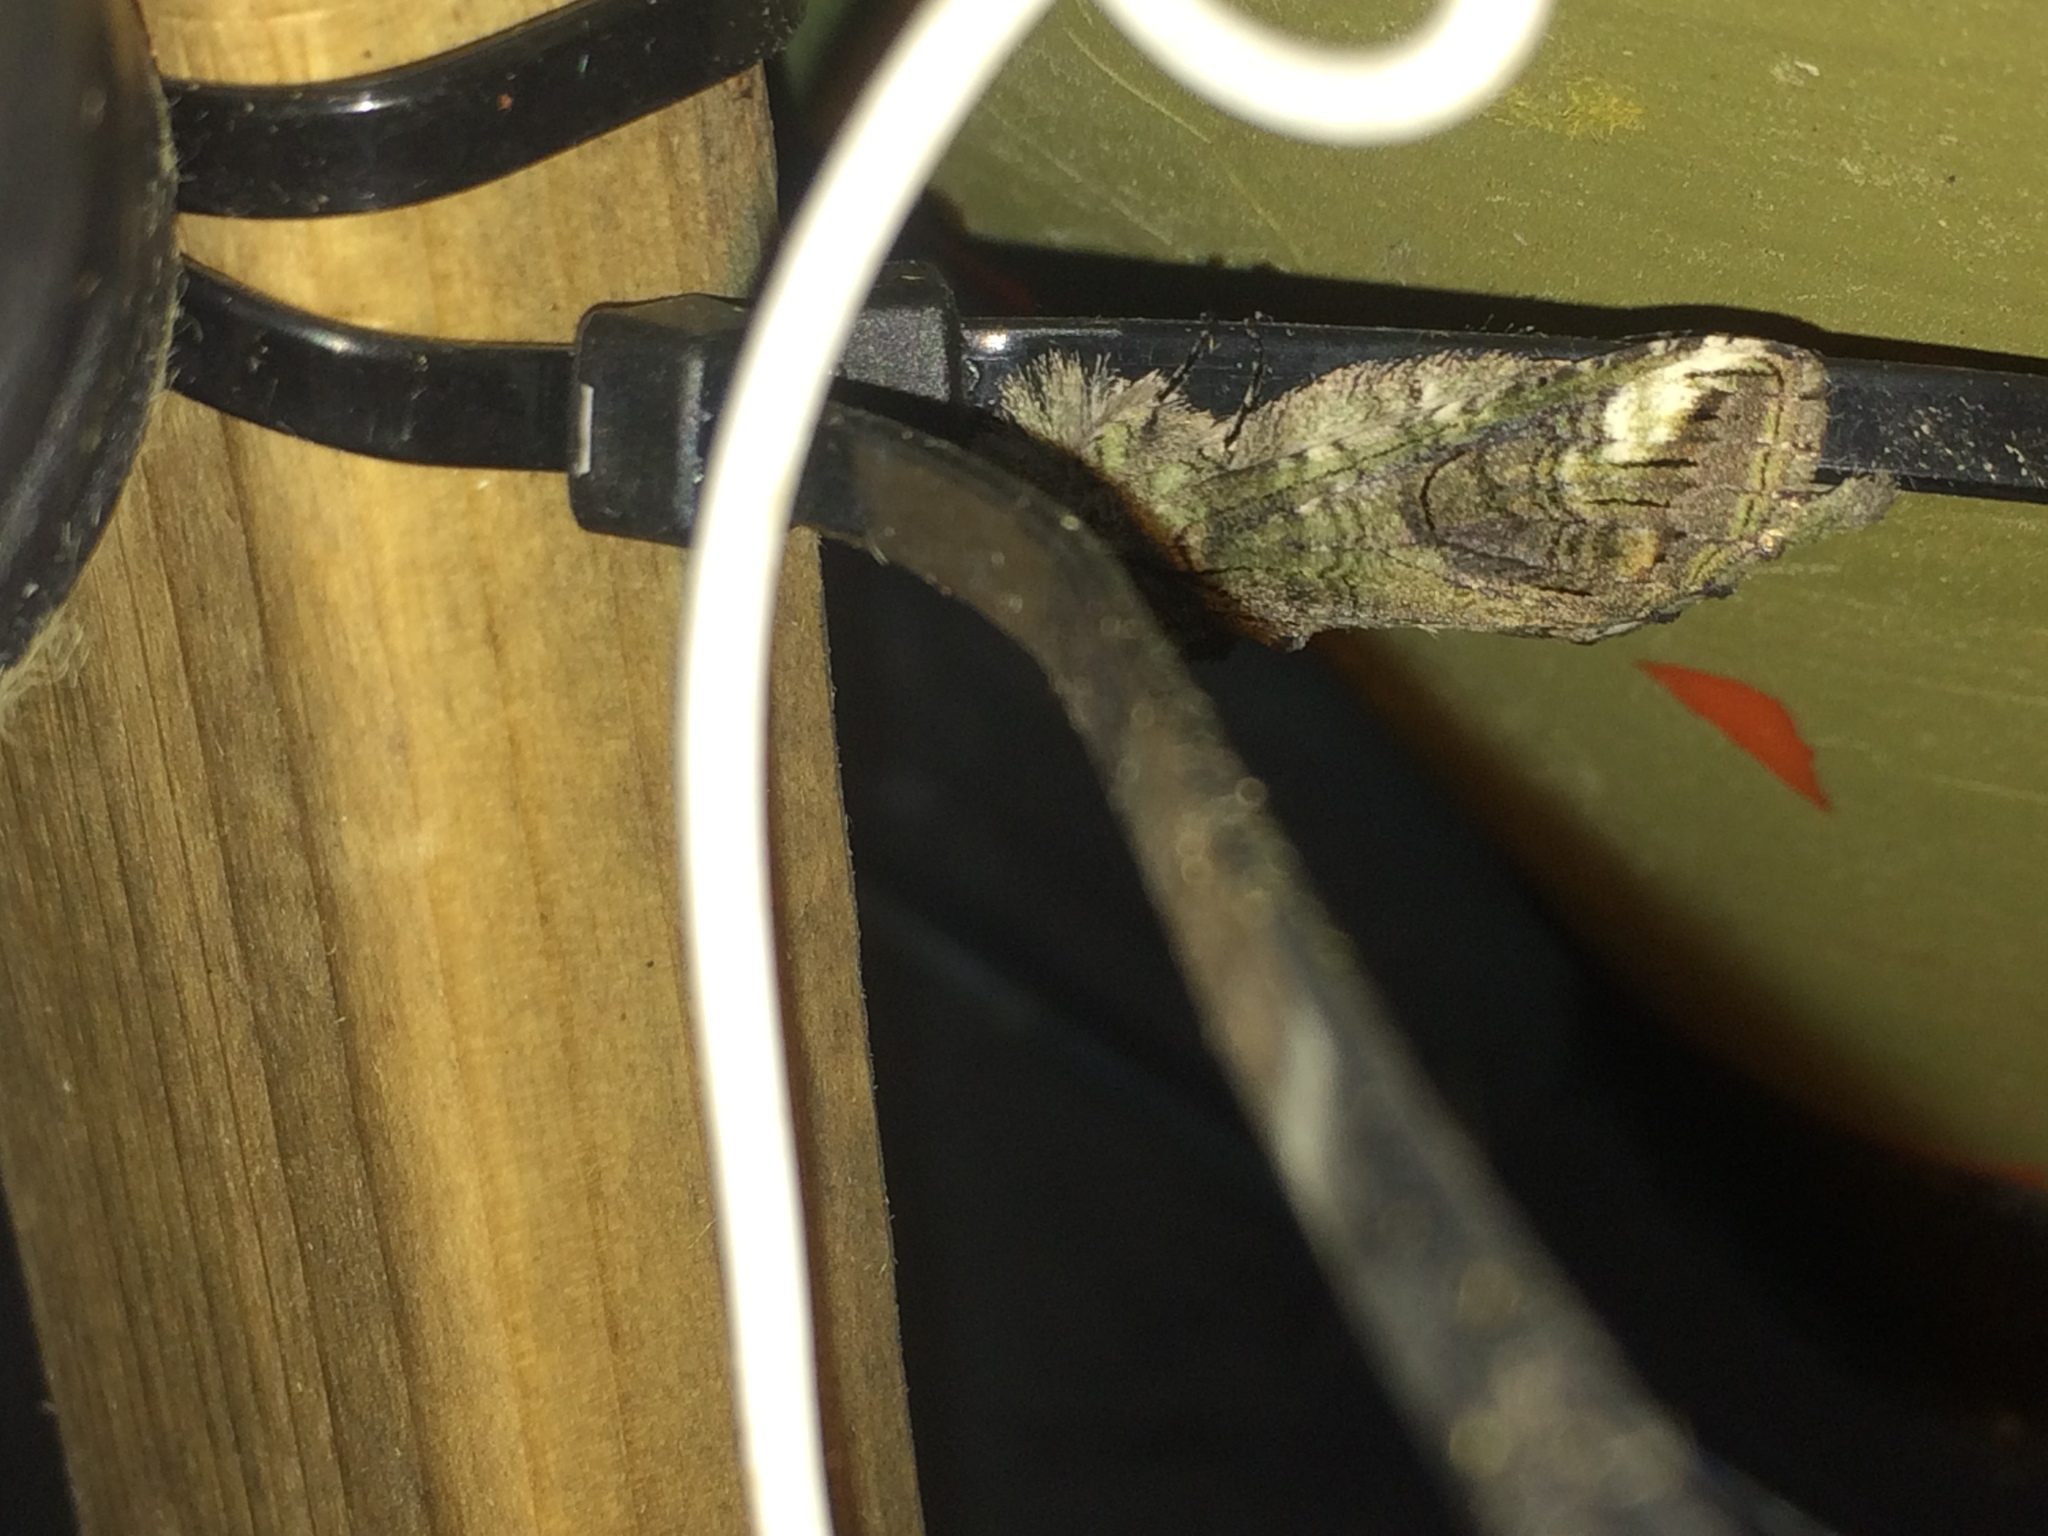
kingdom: Animalia
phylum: Arthropoda
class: Insecta
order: Lepidoptera
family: Notodontidae
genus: Heterocampa
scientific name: Heterocampa obliqua
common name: Oblique heterocampa
